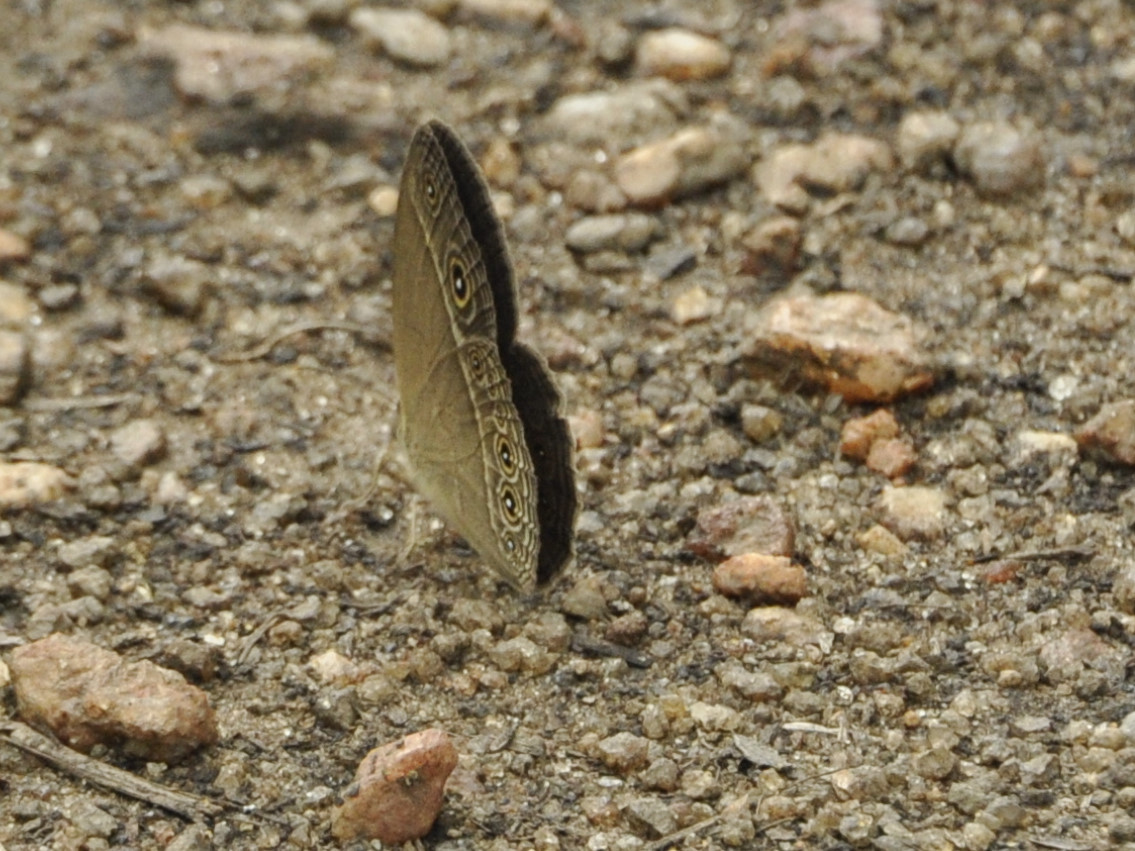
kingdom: Animalia
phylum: Arthropoda
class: Insecta
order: Lepidoptera
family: Nymphalidae
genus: Brakefieldia
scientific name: Brakefieldia simonsii
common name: Pale patroller
